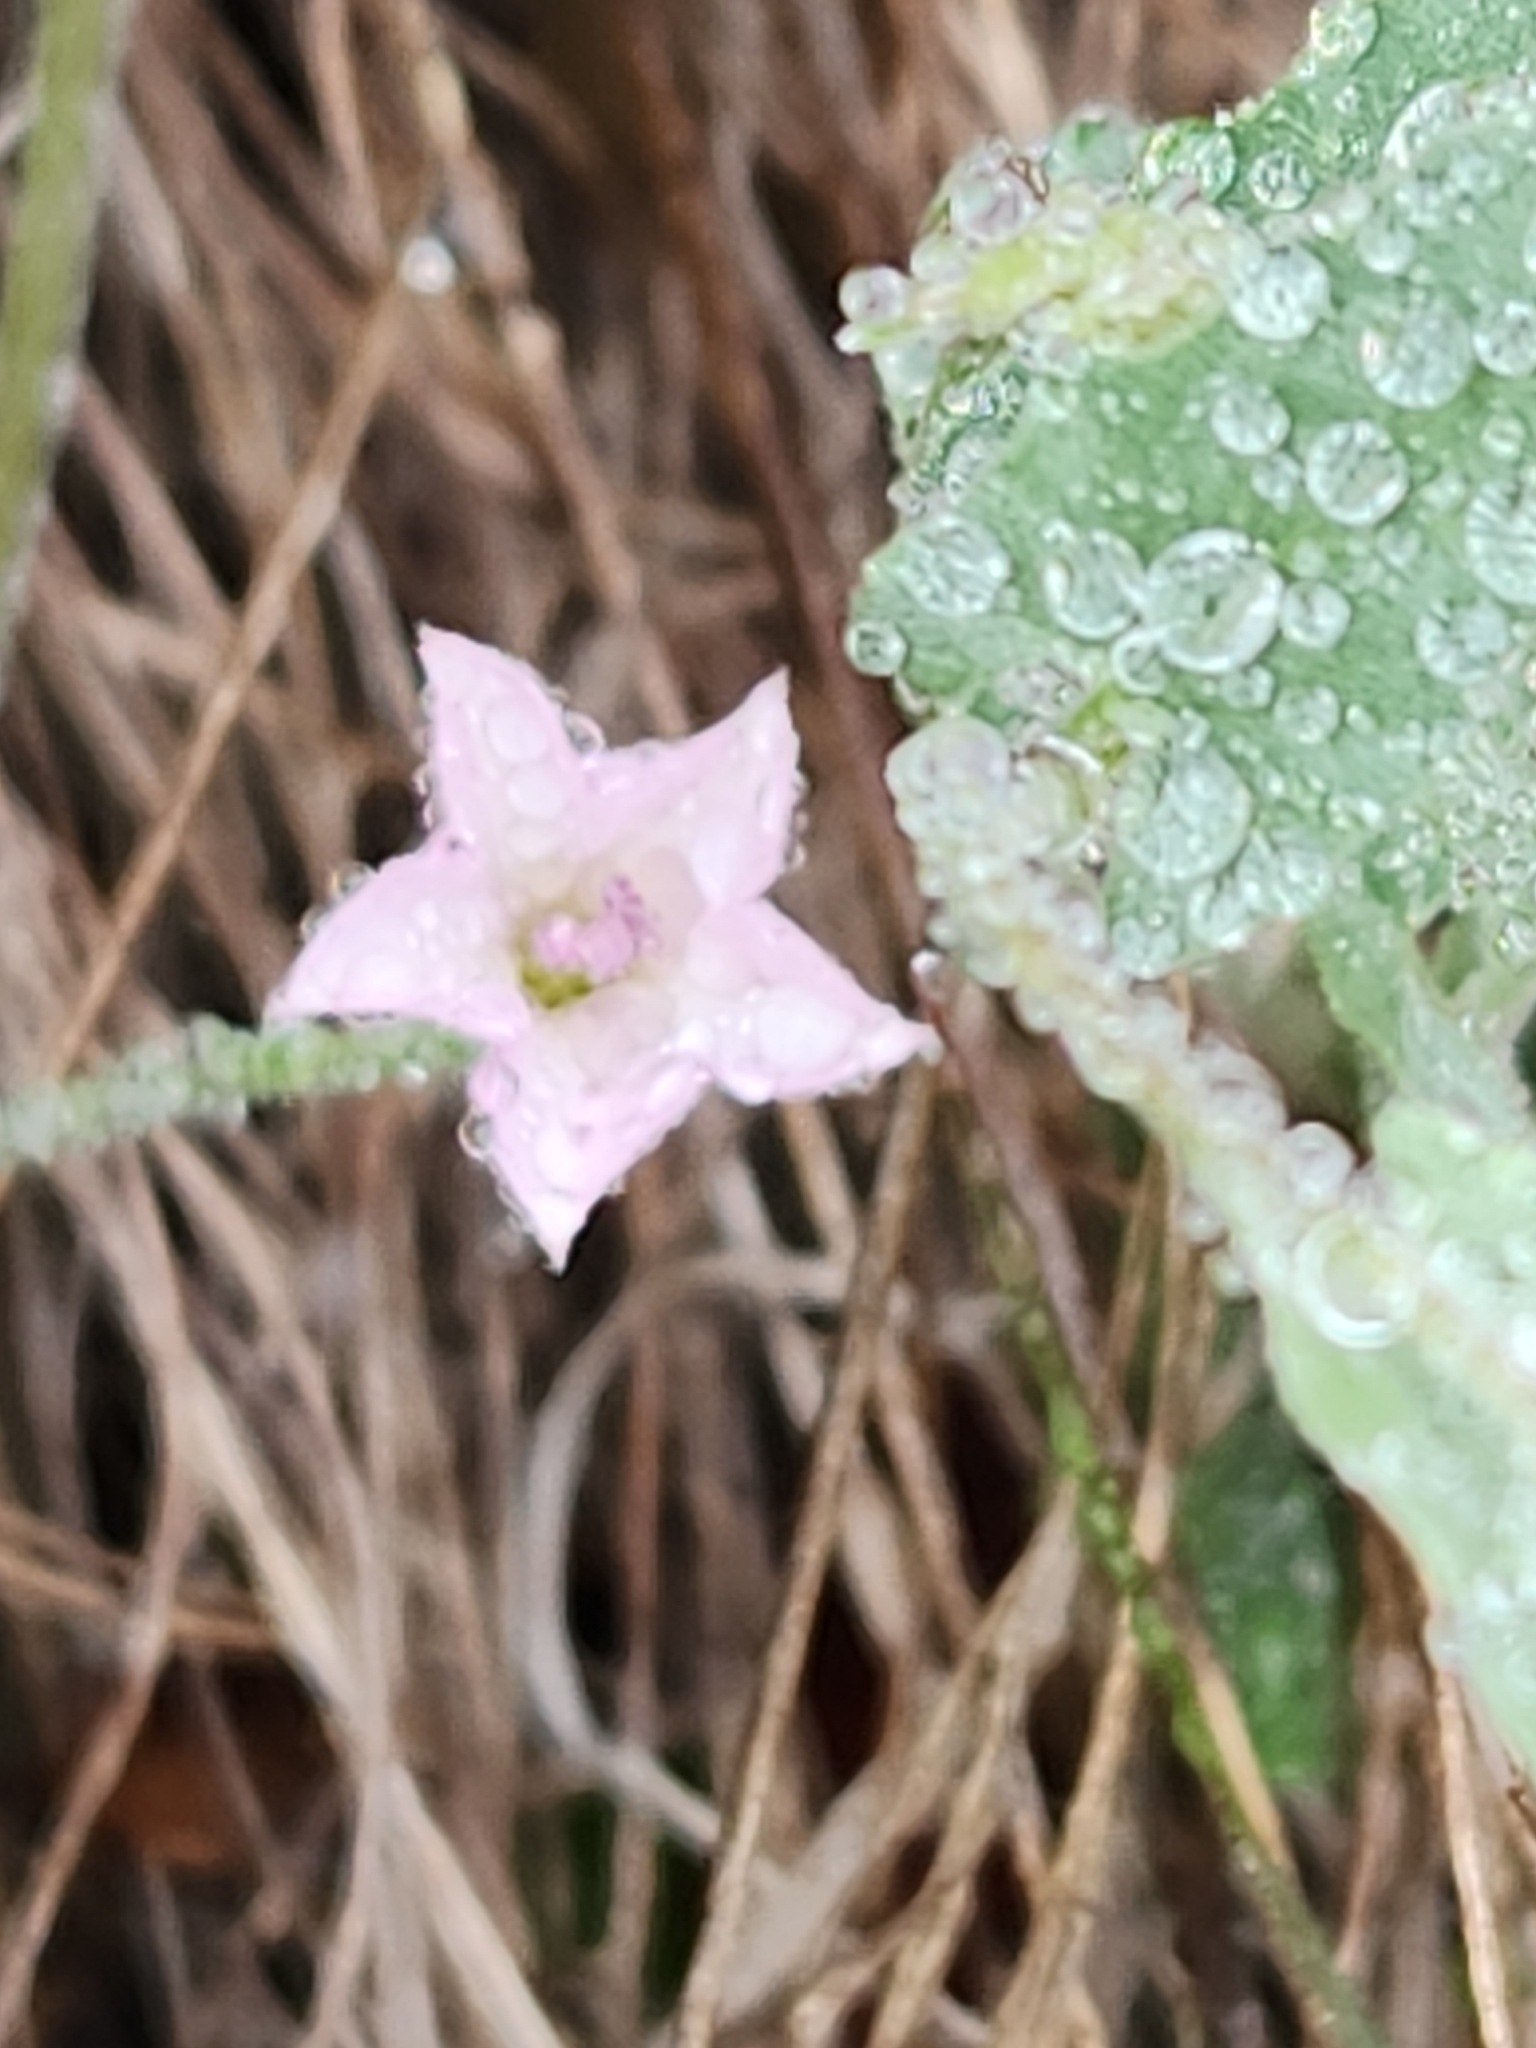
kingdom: Plantae
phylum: Tracheophyta
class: Magnoliopsida
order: Solanales
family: Convolvulaceae
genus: Convolvulus
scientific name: Convolvulus equitans
